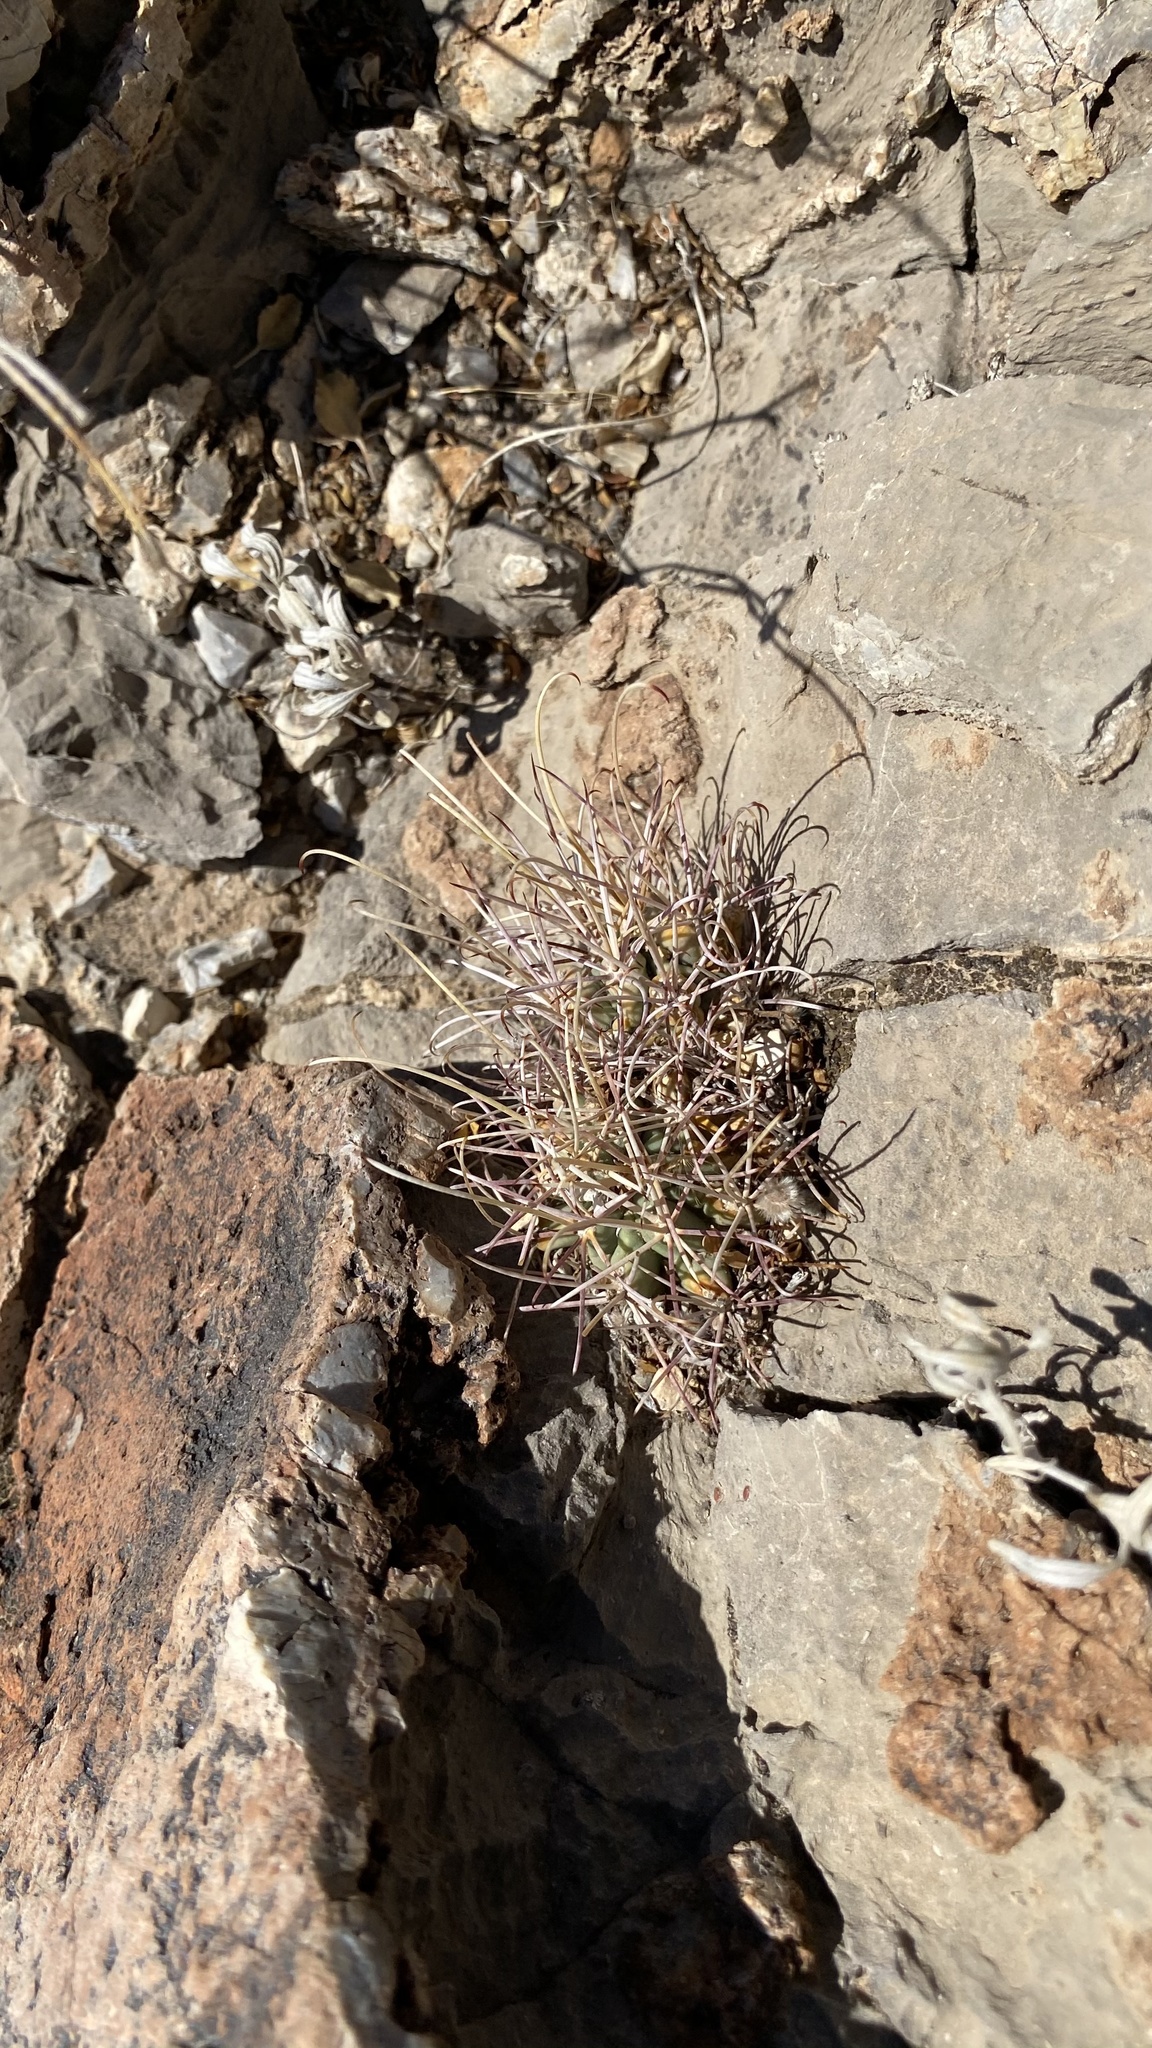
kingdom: Plantae
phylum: Tracheophyta
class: Magnoliopsida
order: Caryophyllales
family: Cactaceae
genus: Ferocactus
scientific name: Ferocactus uncinatus
